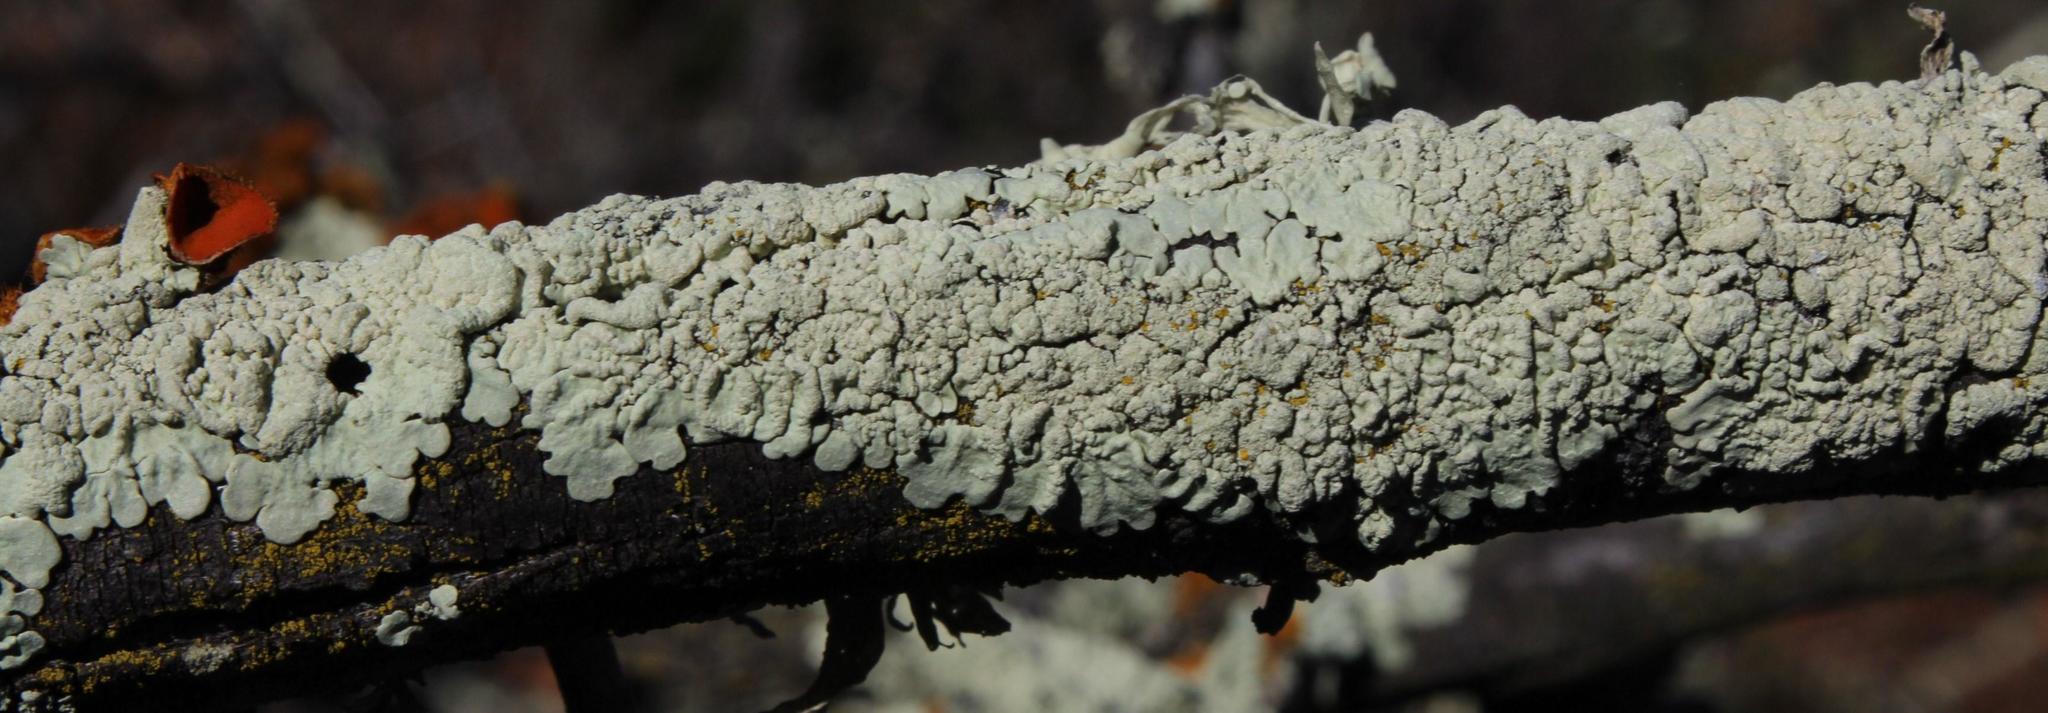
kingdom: Fungi
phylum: Ascomycota
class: Lecanoromycetes
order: Lecanorales
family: Parmeliaceae
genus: Flavoparmelia
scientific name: Flavoparmelia soredians
